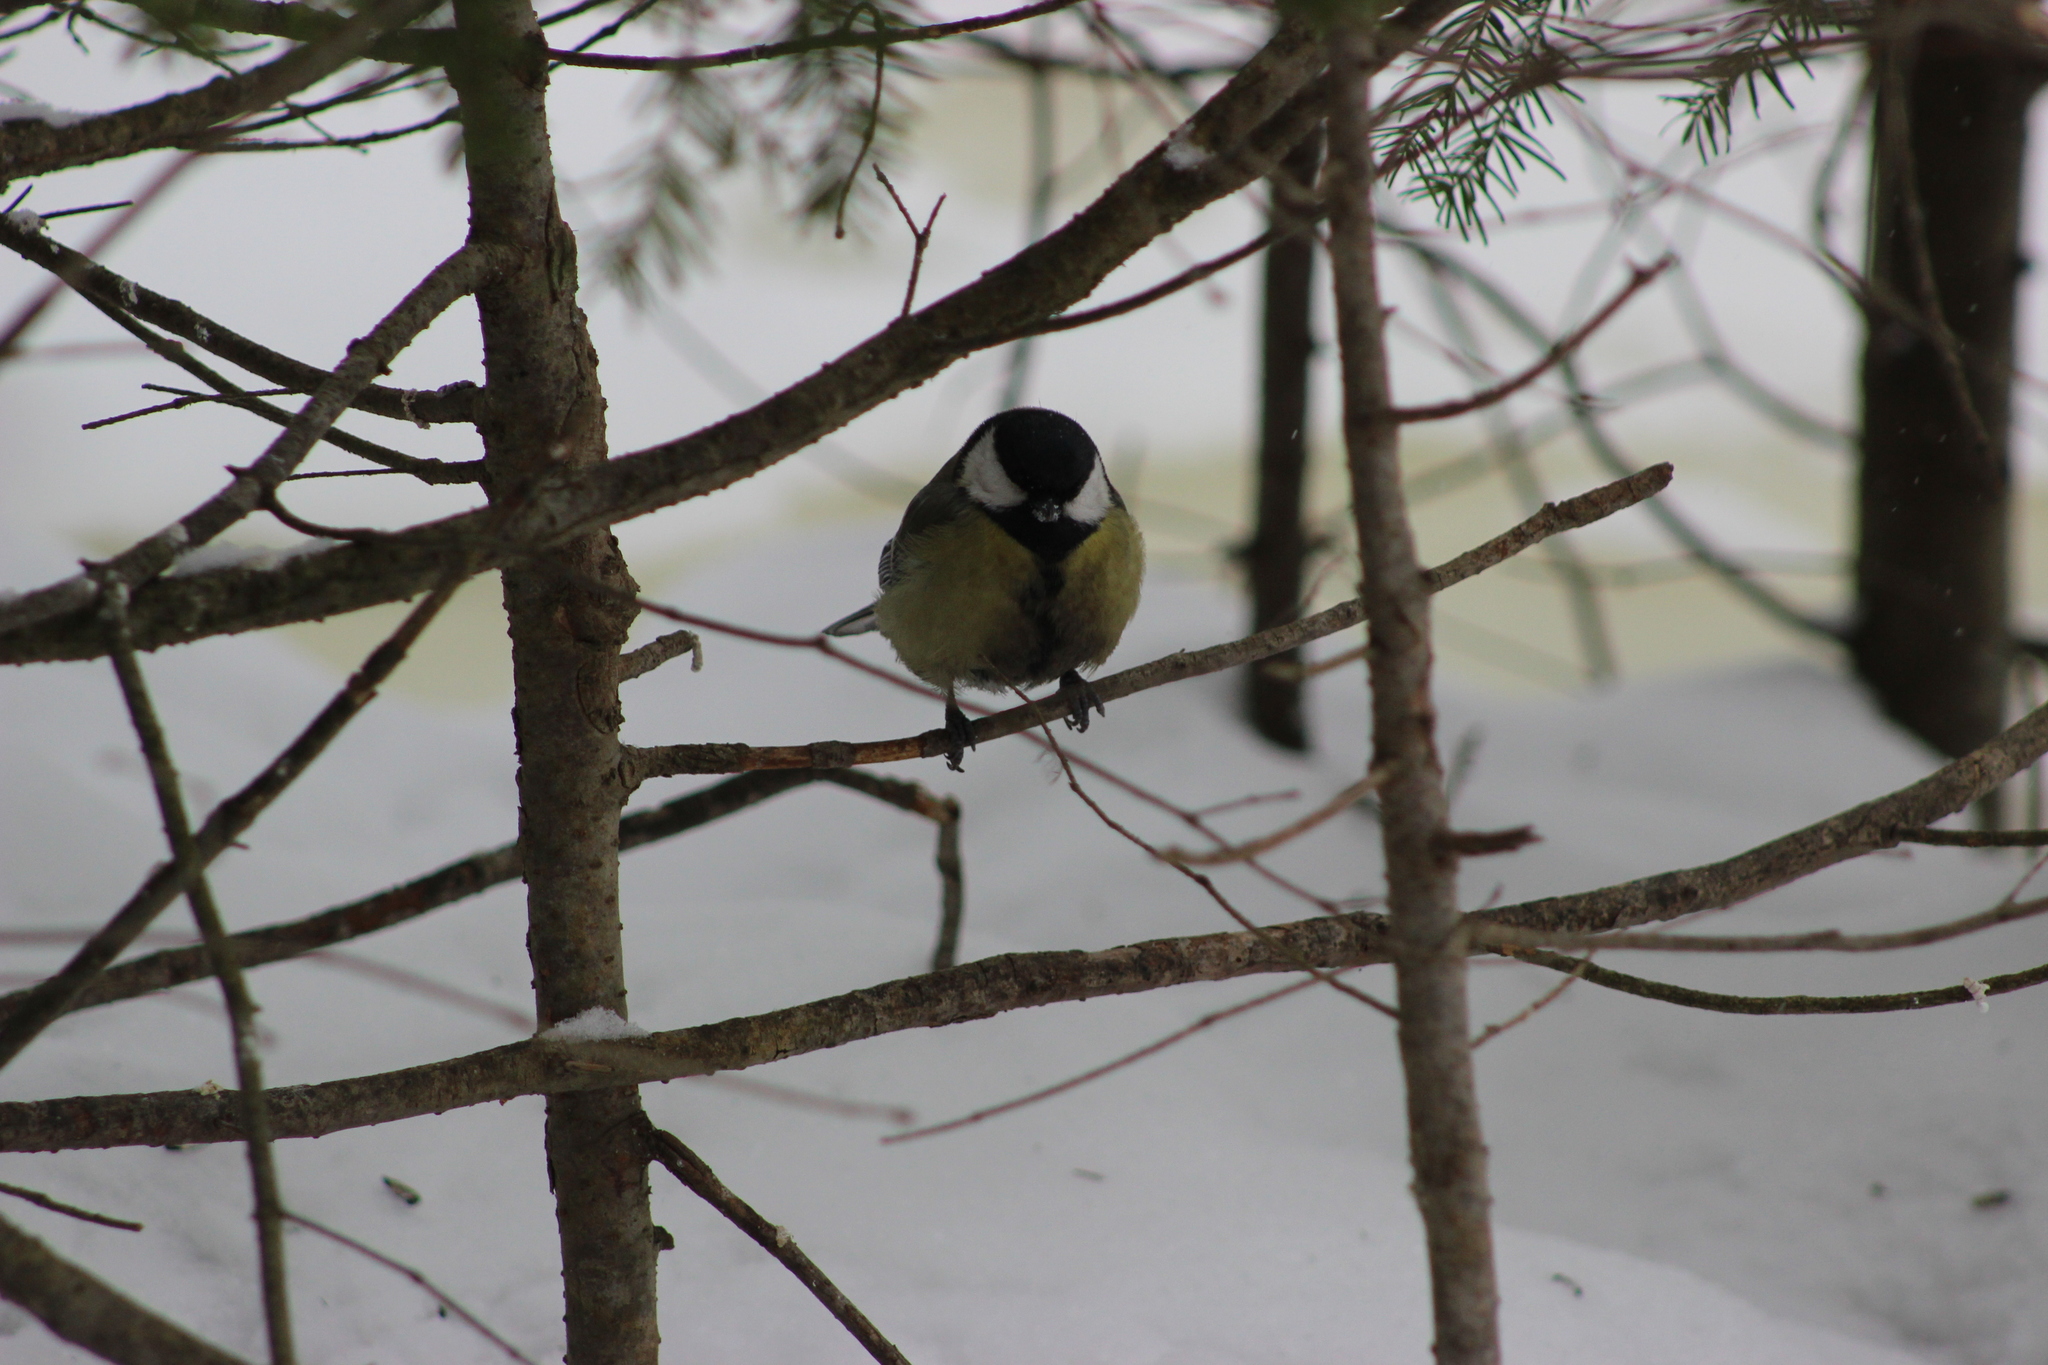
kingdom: Animalia
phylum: Chordata
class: Aves
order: Passeriformes
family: Paridae
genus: Parus
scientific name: Parus major
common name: Great tit
